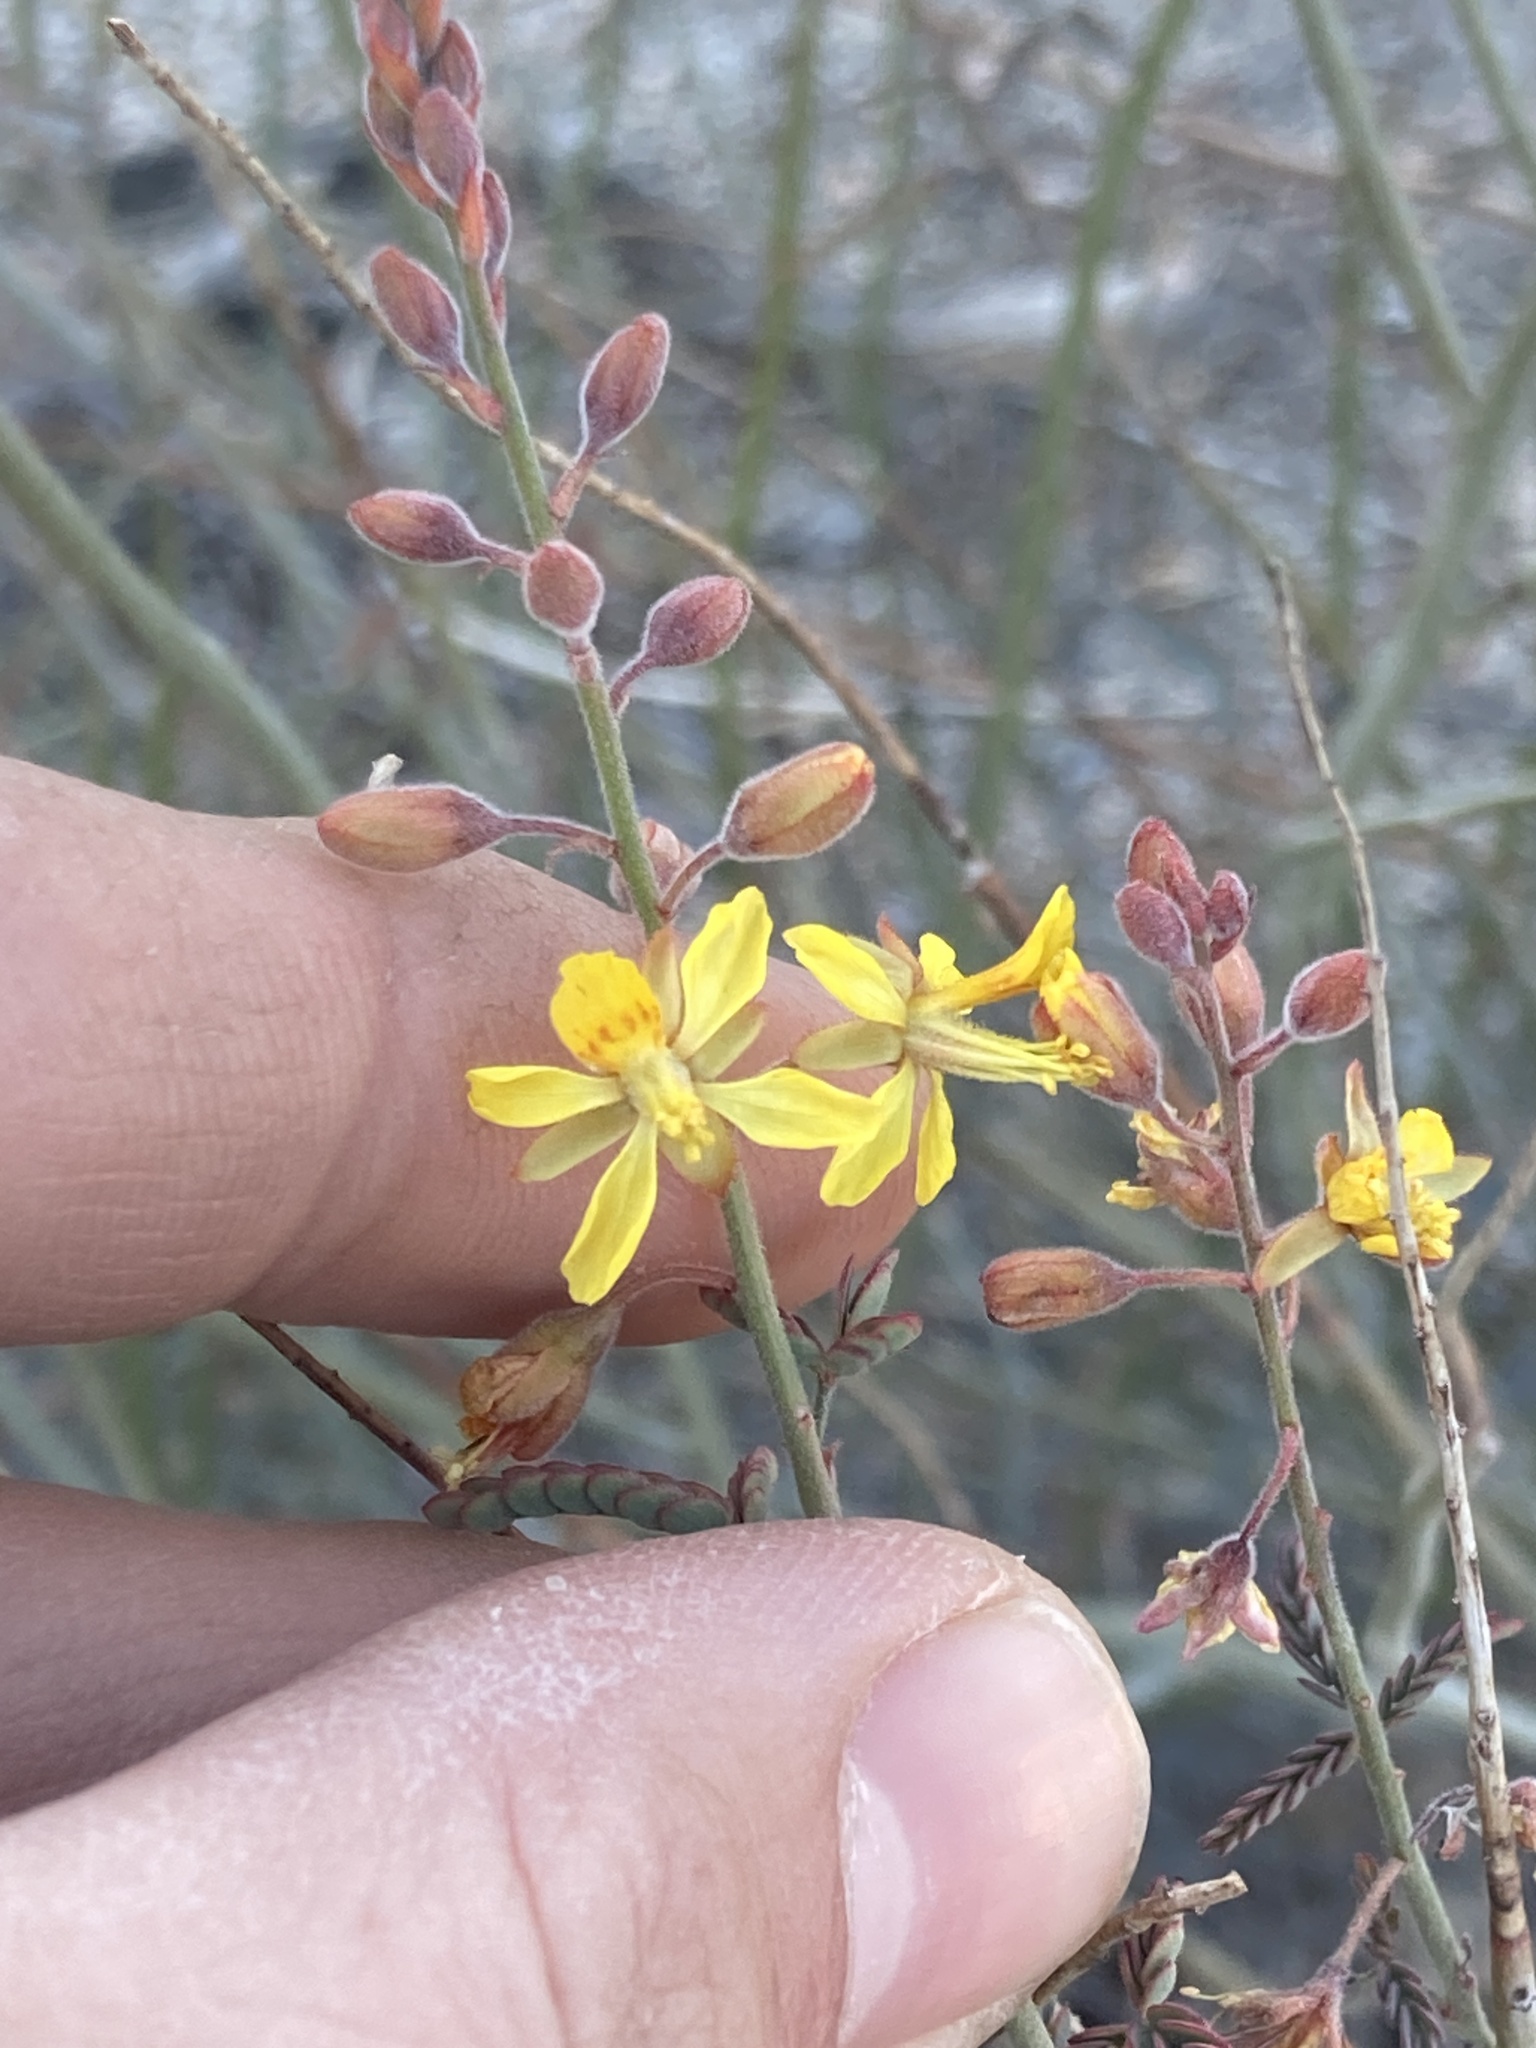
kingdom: Plantae
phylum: Tracheophyta
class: Magnoliopsida
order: Fabales
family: Fabaceae
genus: Hoffmannseggia
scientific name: Hoffmannseggia microphylla
